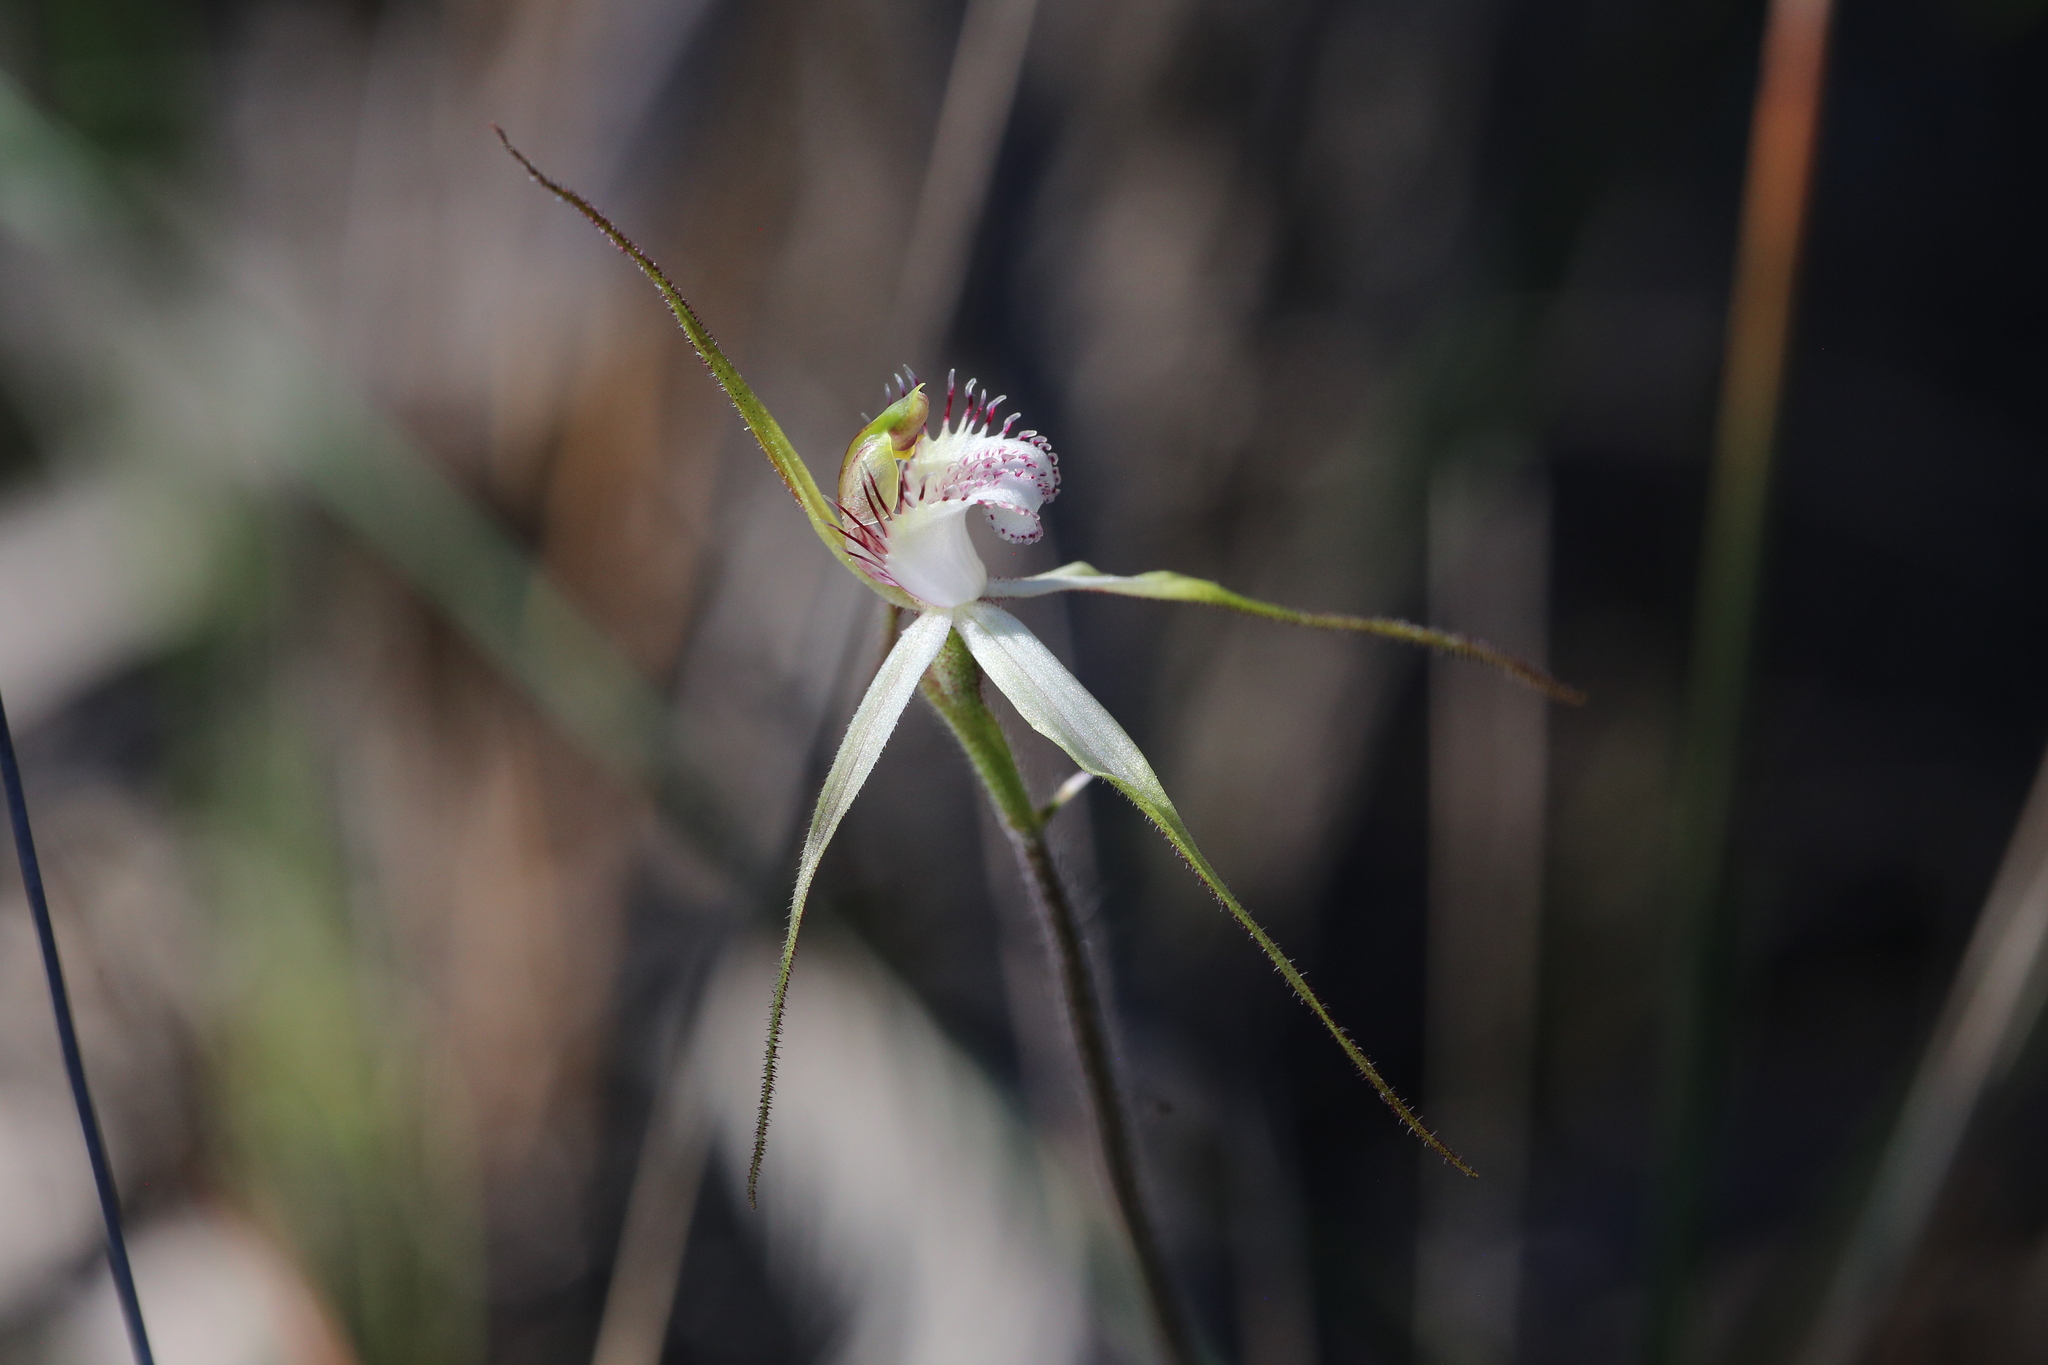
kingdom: Plantae
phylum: Tracheophyta
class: Liliopsida
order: Asparagales
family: Orchidaceae
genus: Caladenia
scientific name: Caladenia cruscula
